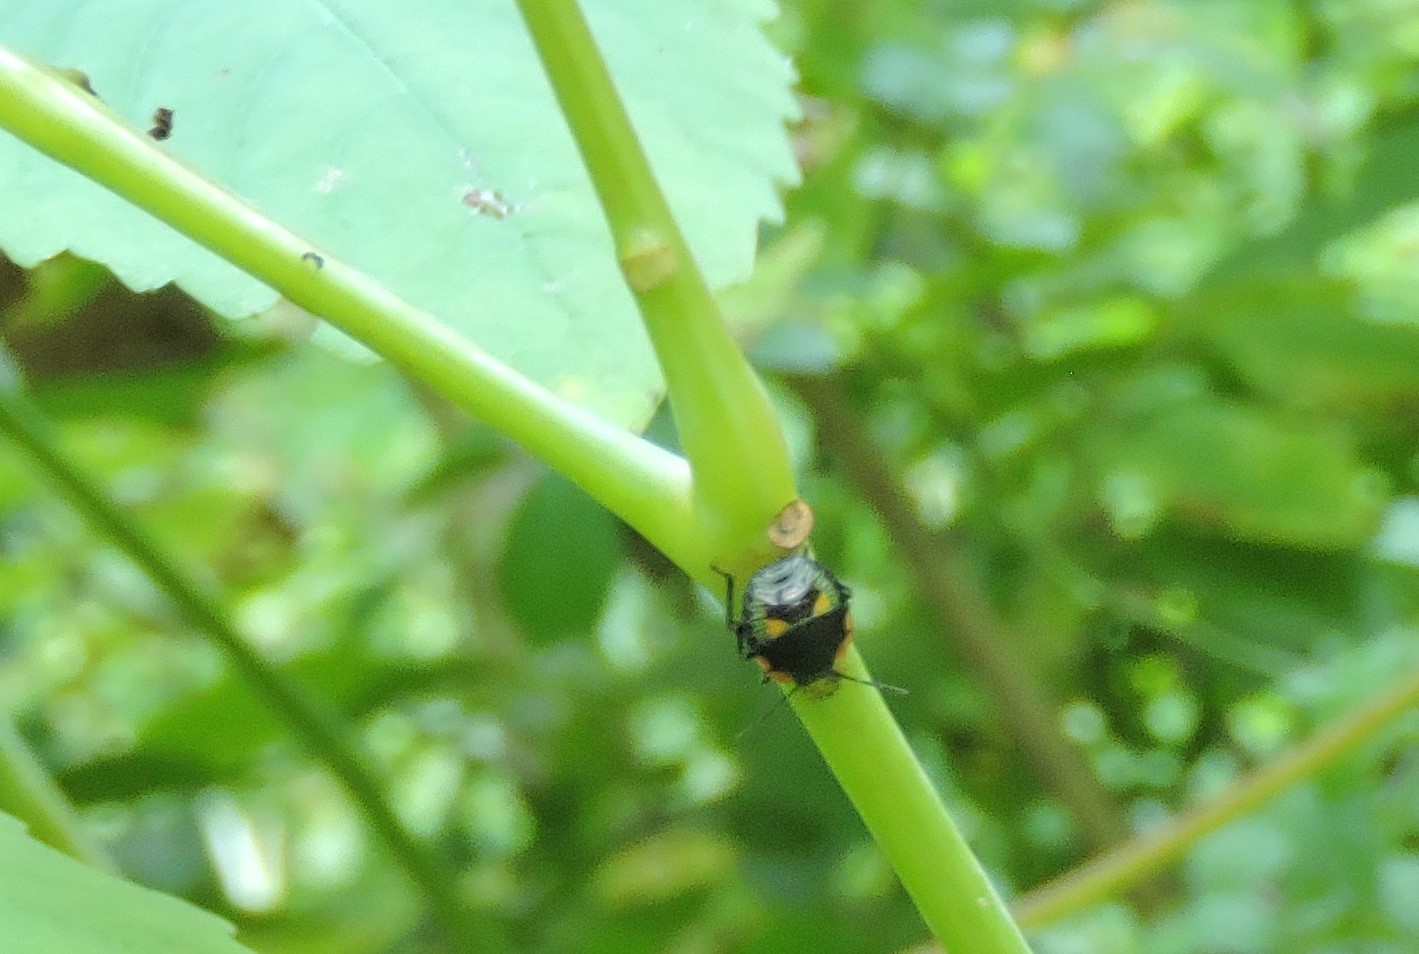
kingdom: Animalia
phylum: Arthropoda
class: Insecta
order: Hemiptera
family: Pentatomidae
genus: Chinavia
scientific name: Chinavia hilaris
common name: Green stink bug
